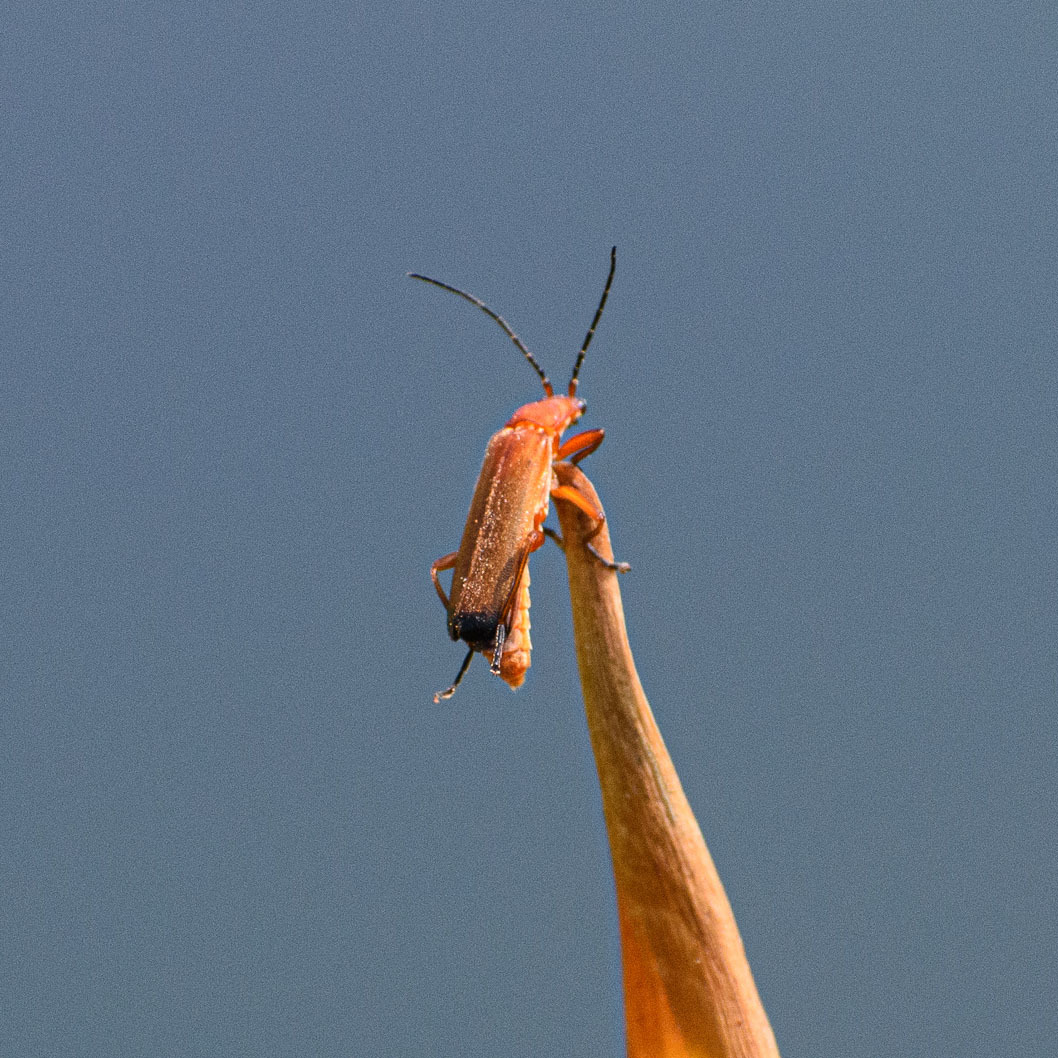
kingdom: Animalia
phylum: Arthropoda
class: Insecta
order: Coleoptera
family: Cantharidae
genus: Rhagonycha
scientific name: Rhagonycha fulva
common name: Common red soldier beetle
